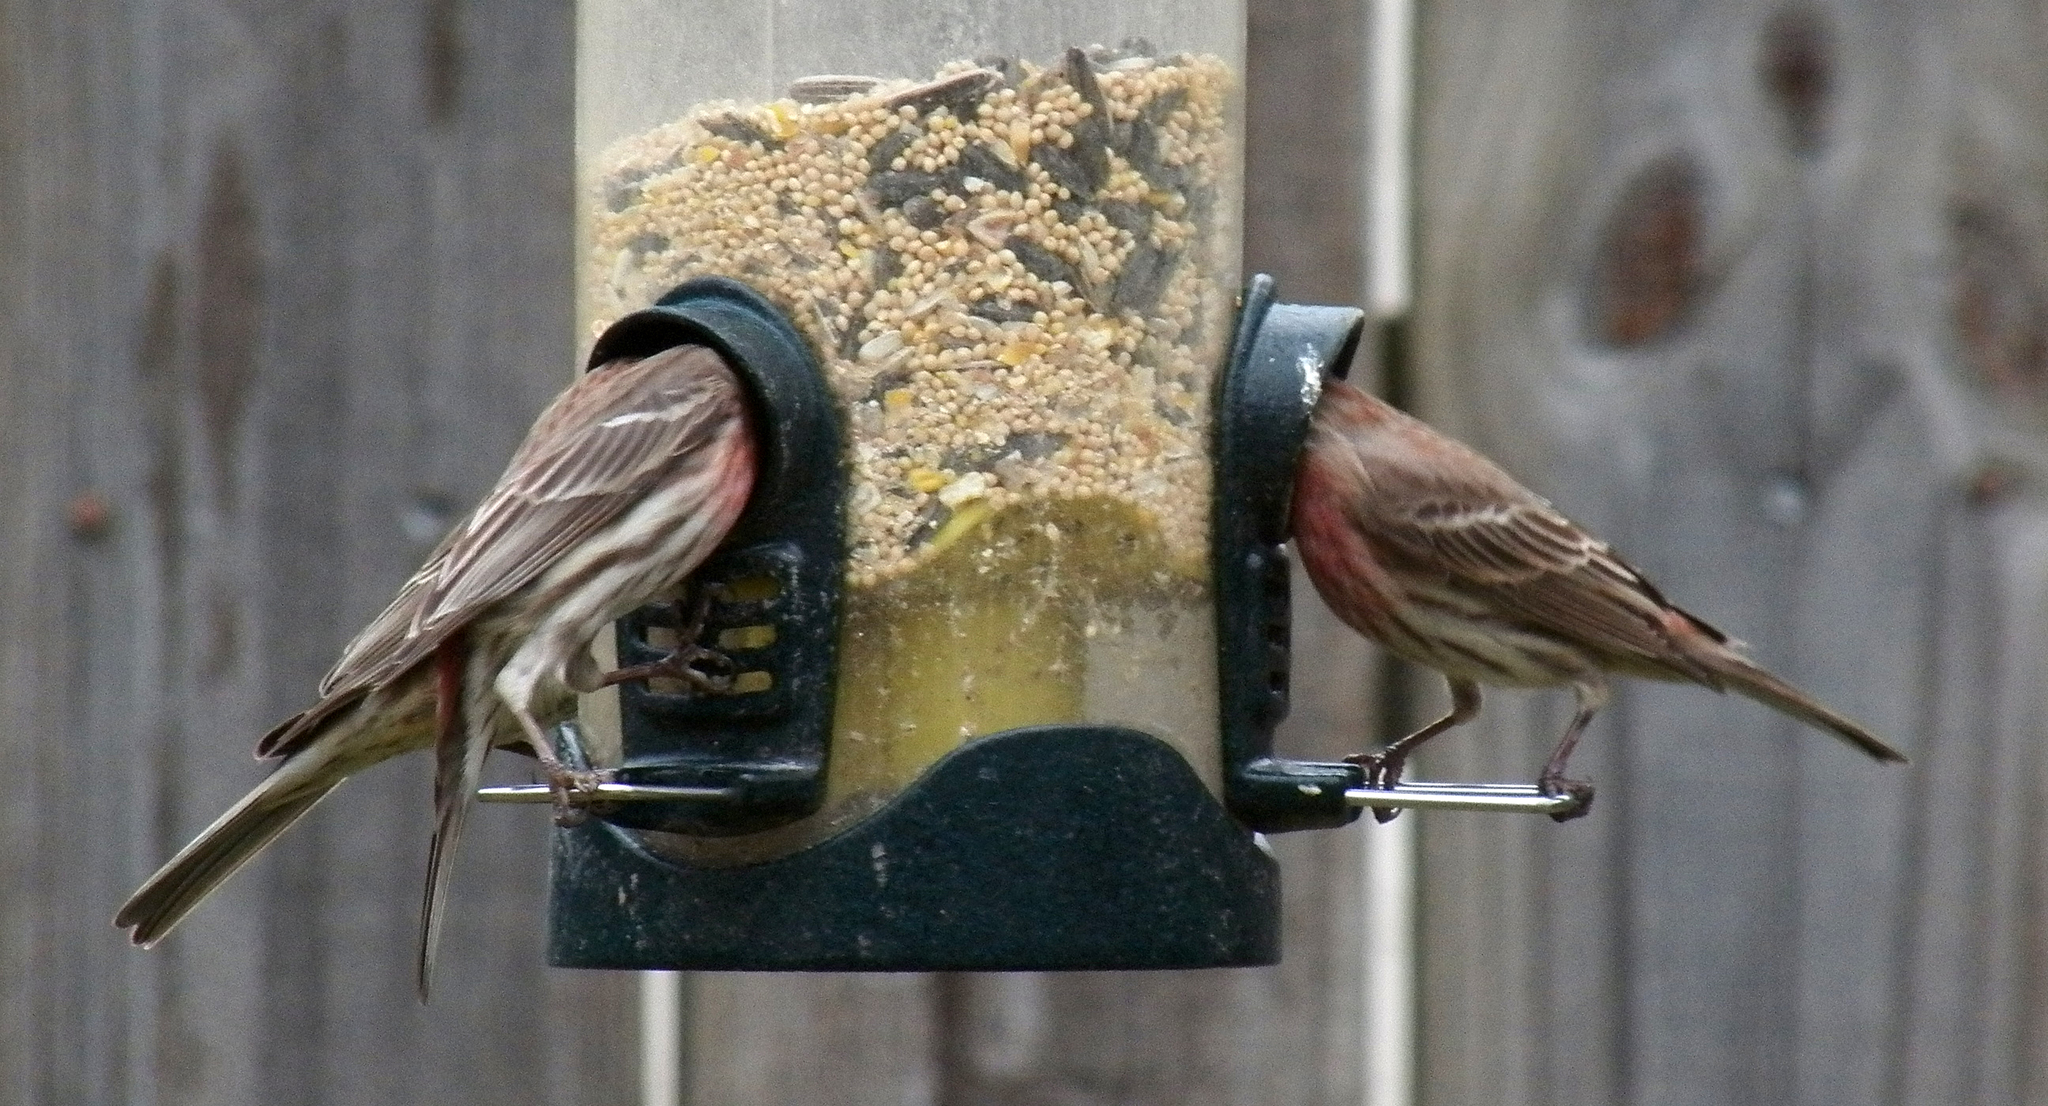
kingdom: Animalia
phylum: Chordata
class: Aves
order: Passeriformes
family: Fringillidae
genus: Haemorhous
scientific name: Haemorhous mexicanus
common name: House finch
